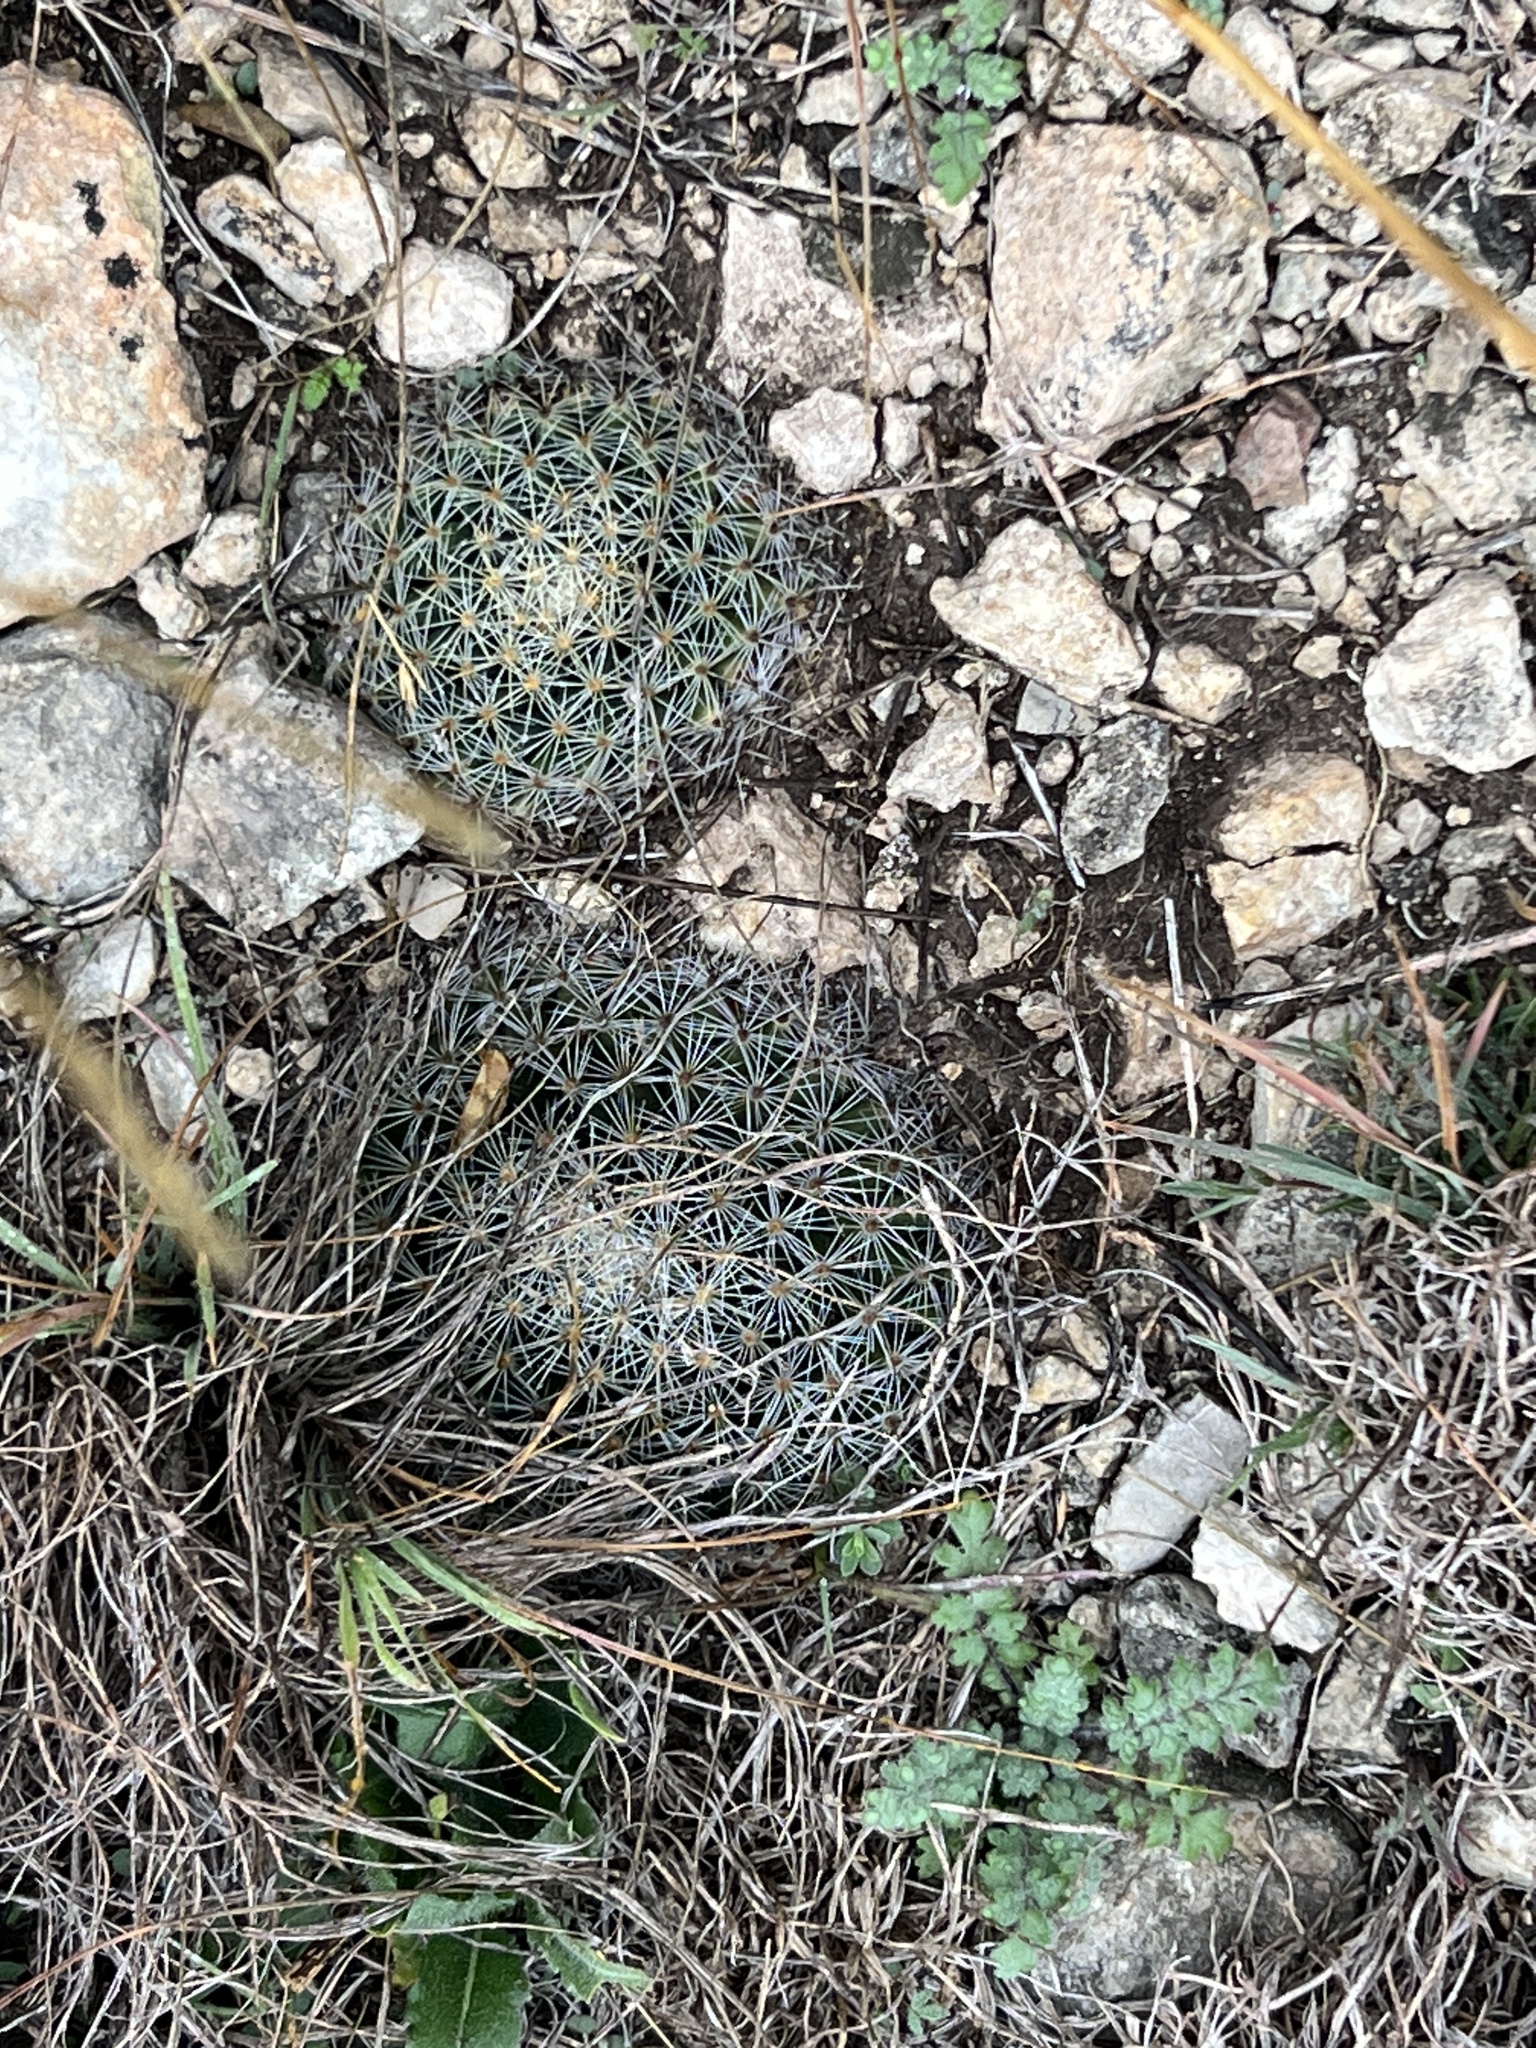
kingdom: Plantae
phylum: Tracheophyta
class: Magnoliopsida
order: Caryophyllales
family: Cactaceae
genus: Mammillaria
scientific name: Mammillaria heyderi
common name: Little nipple cactus
